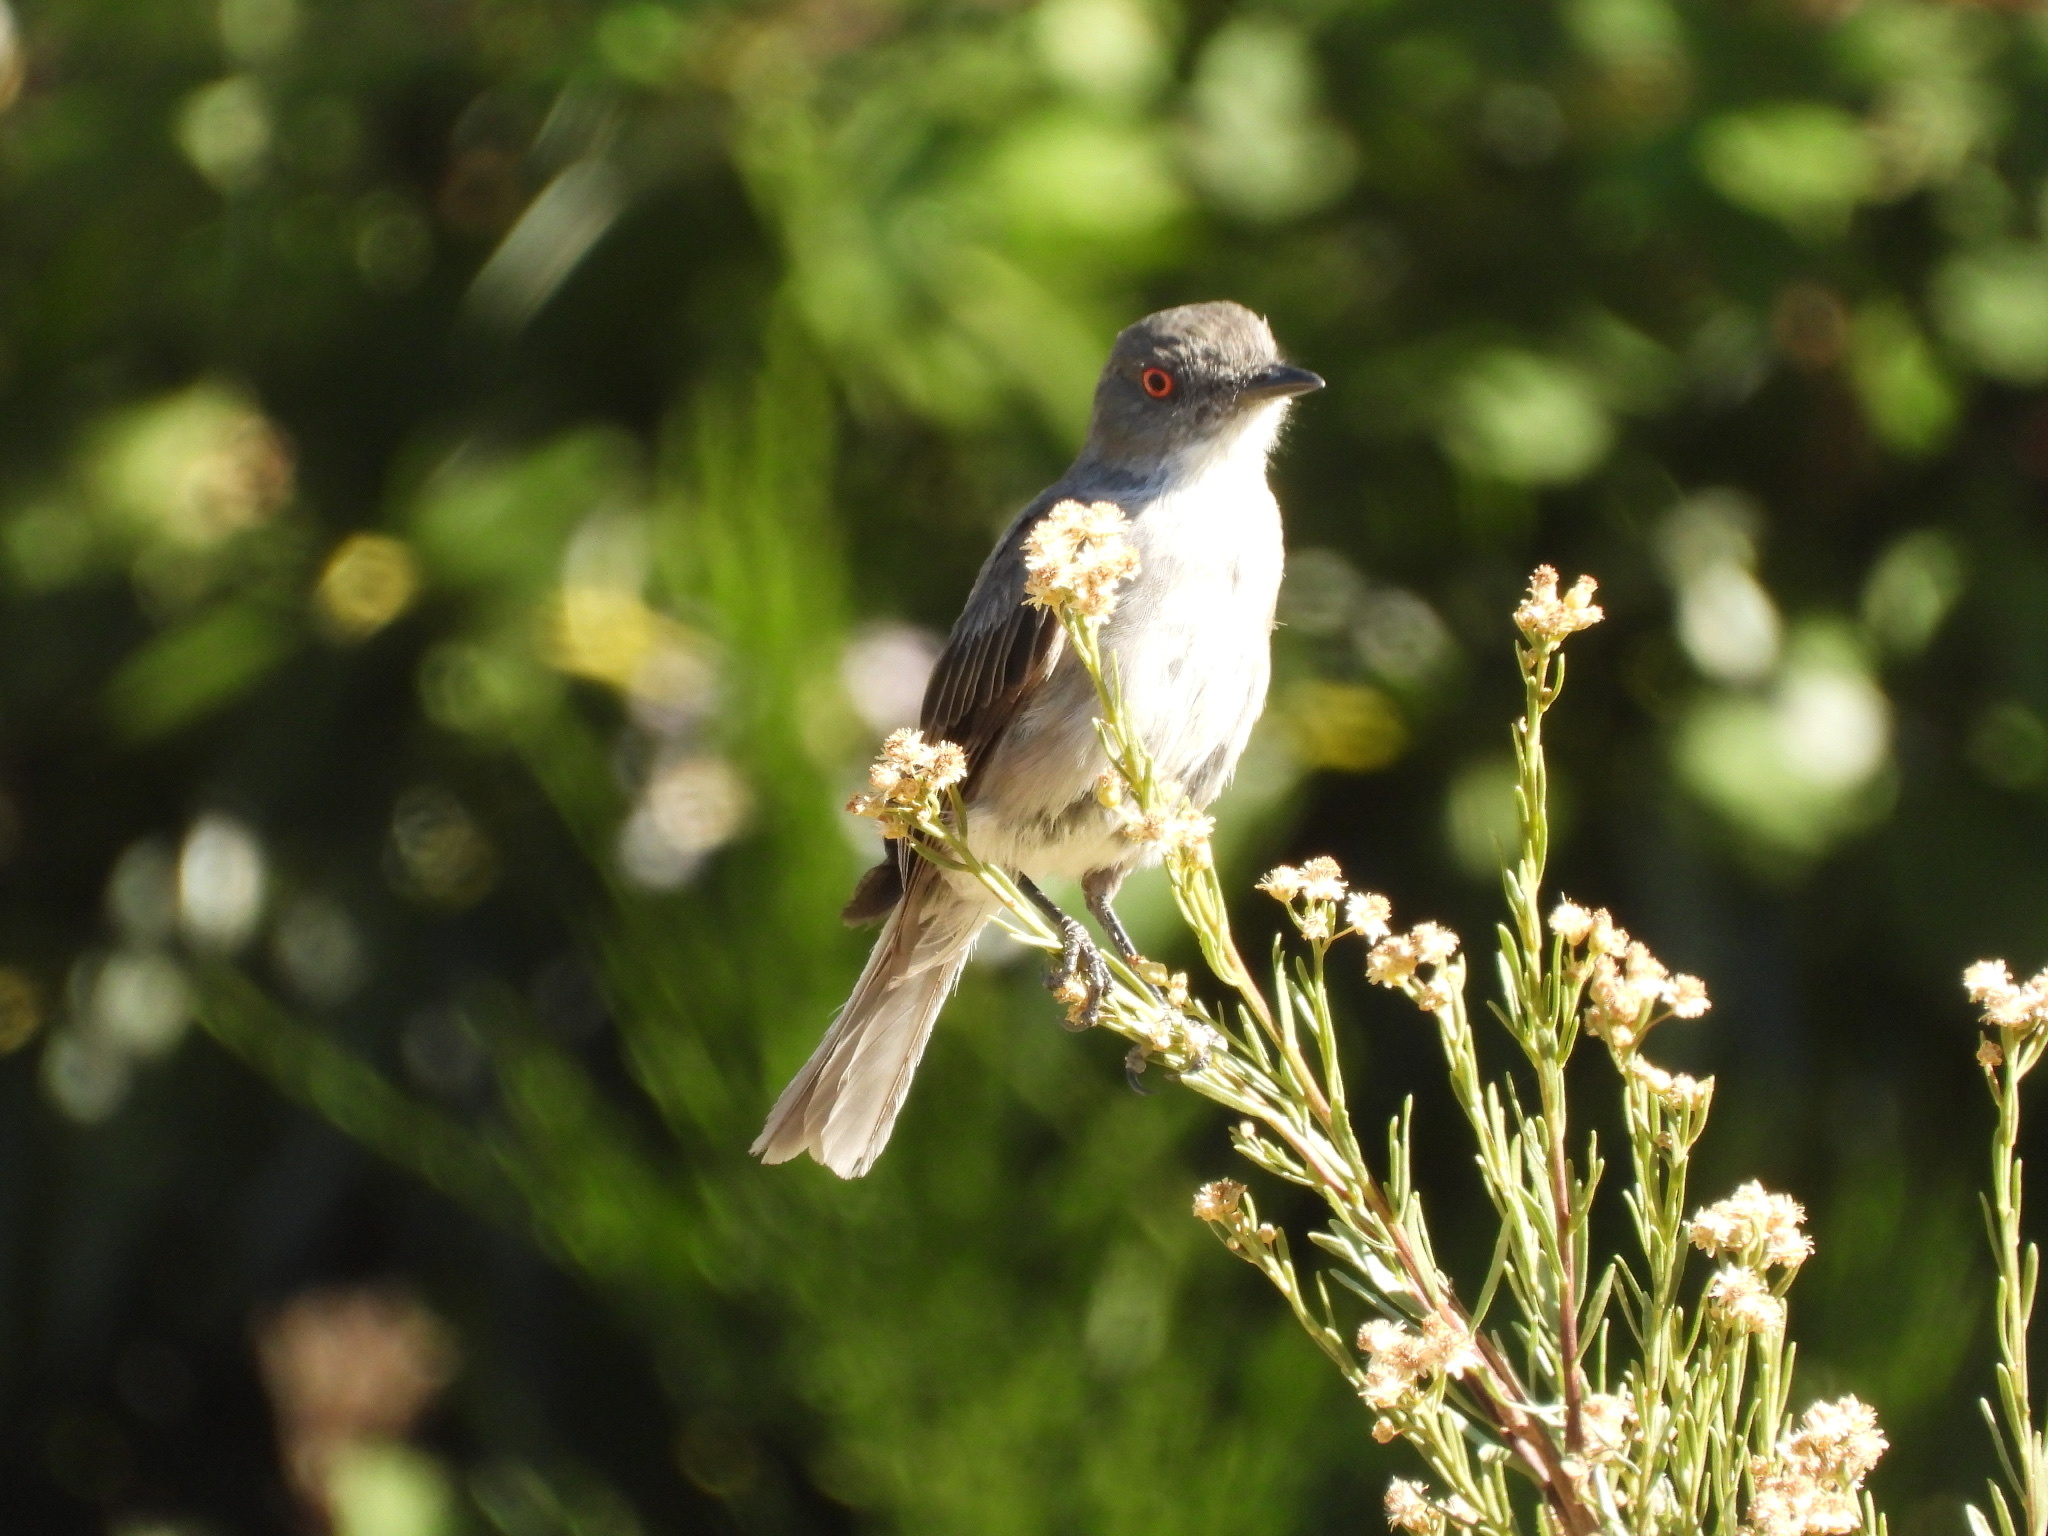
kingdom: Animalia
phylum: Chordata
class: Aves
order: Passeriformes
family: Tyrannidae
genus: Xolmis
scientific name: Xolmis pyrope
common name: Fire-eyed diucon
